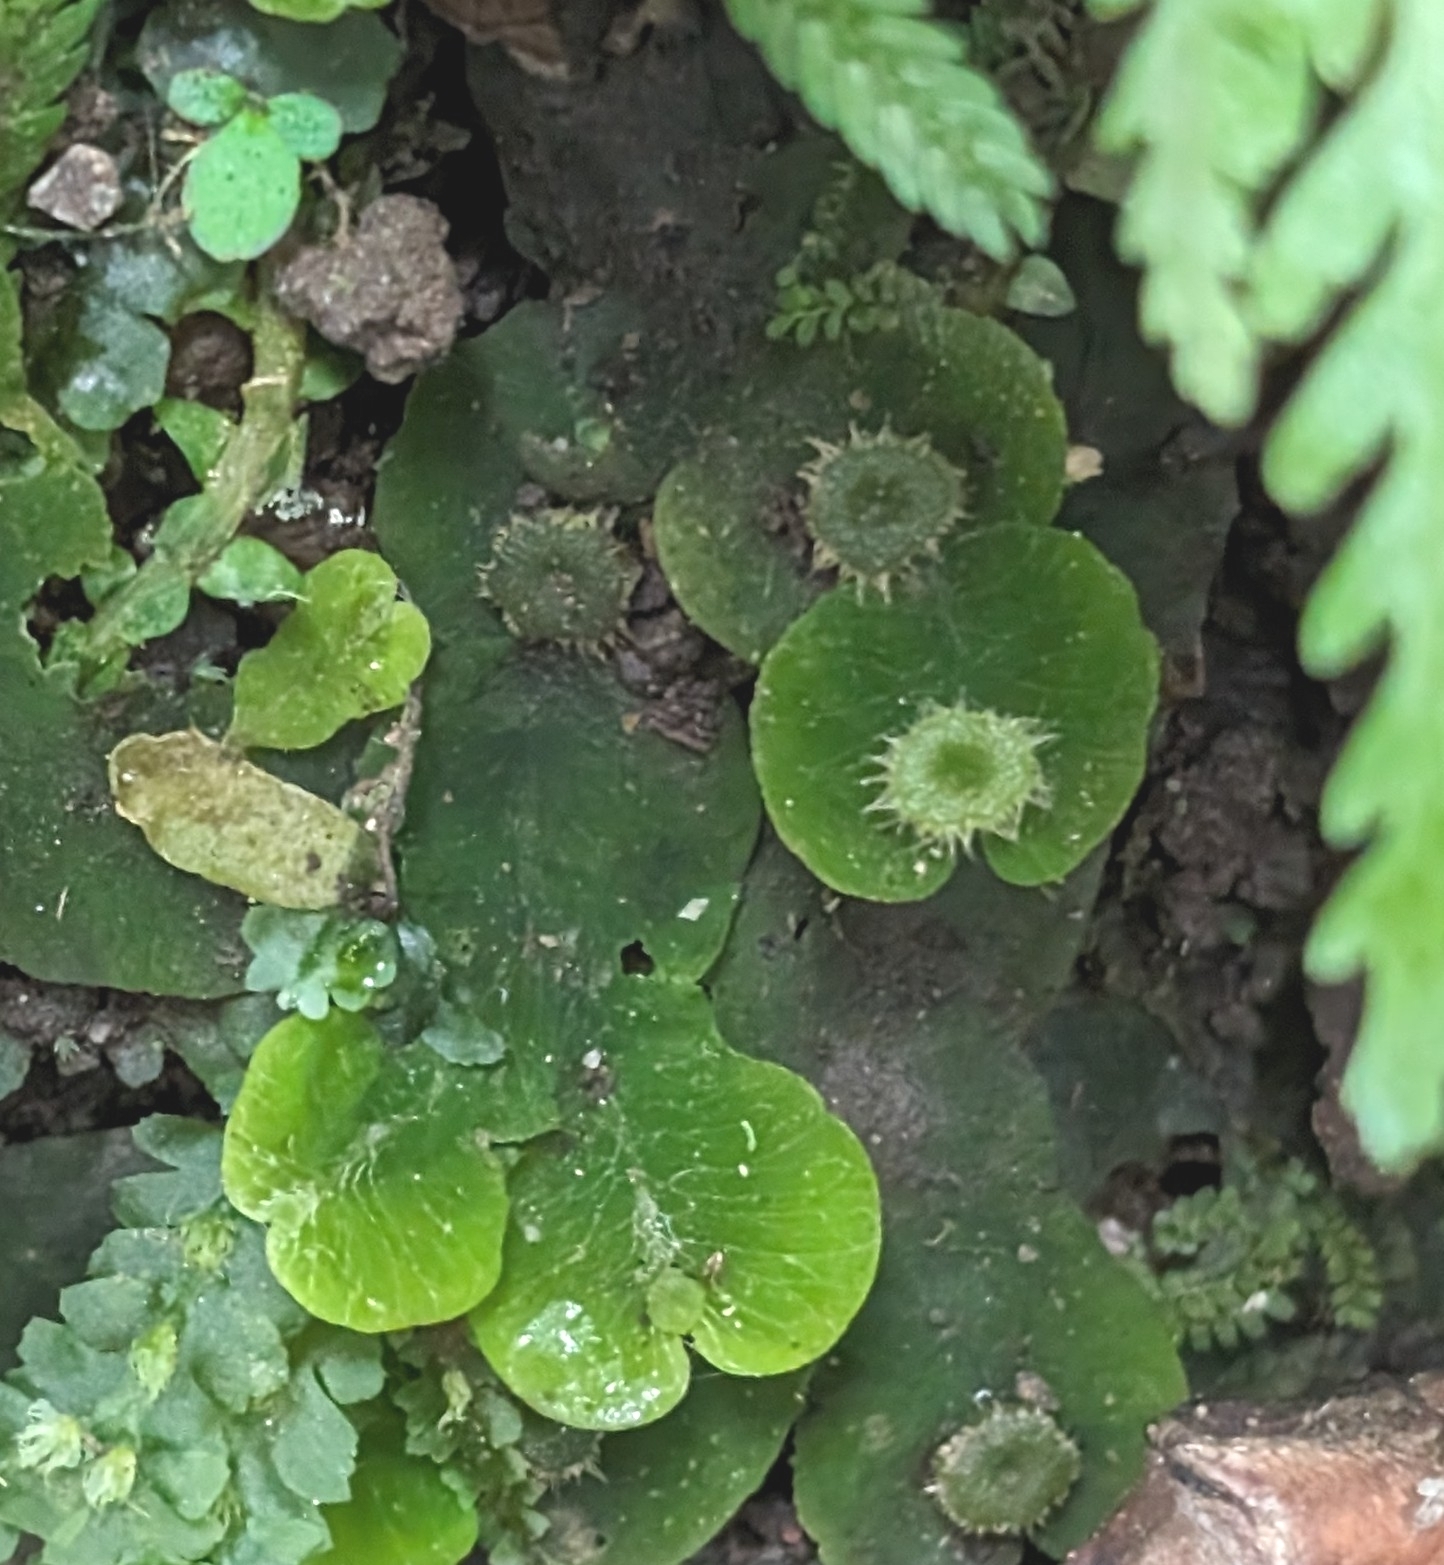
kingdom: Plantae
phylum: Marchantiophyta
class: Marchantiopsida
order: Marchantiales
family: Dumortieraceae
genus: Dumortiera
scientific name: Dumortiera hirsuta
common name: Dumortier's liverwort
